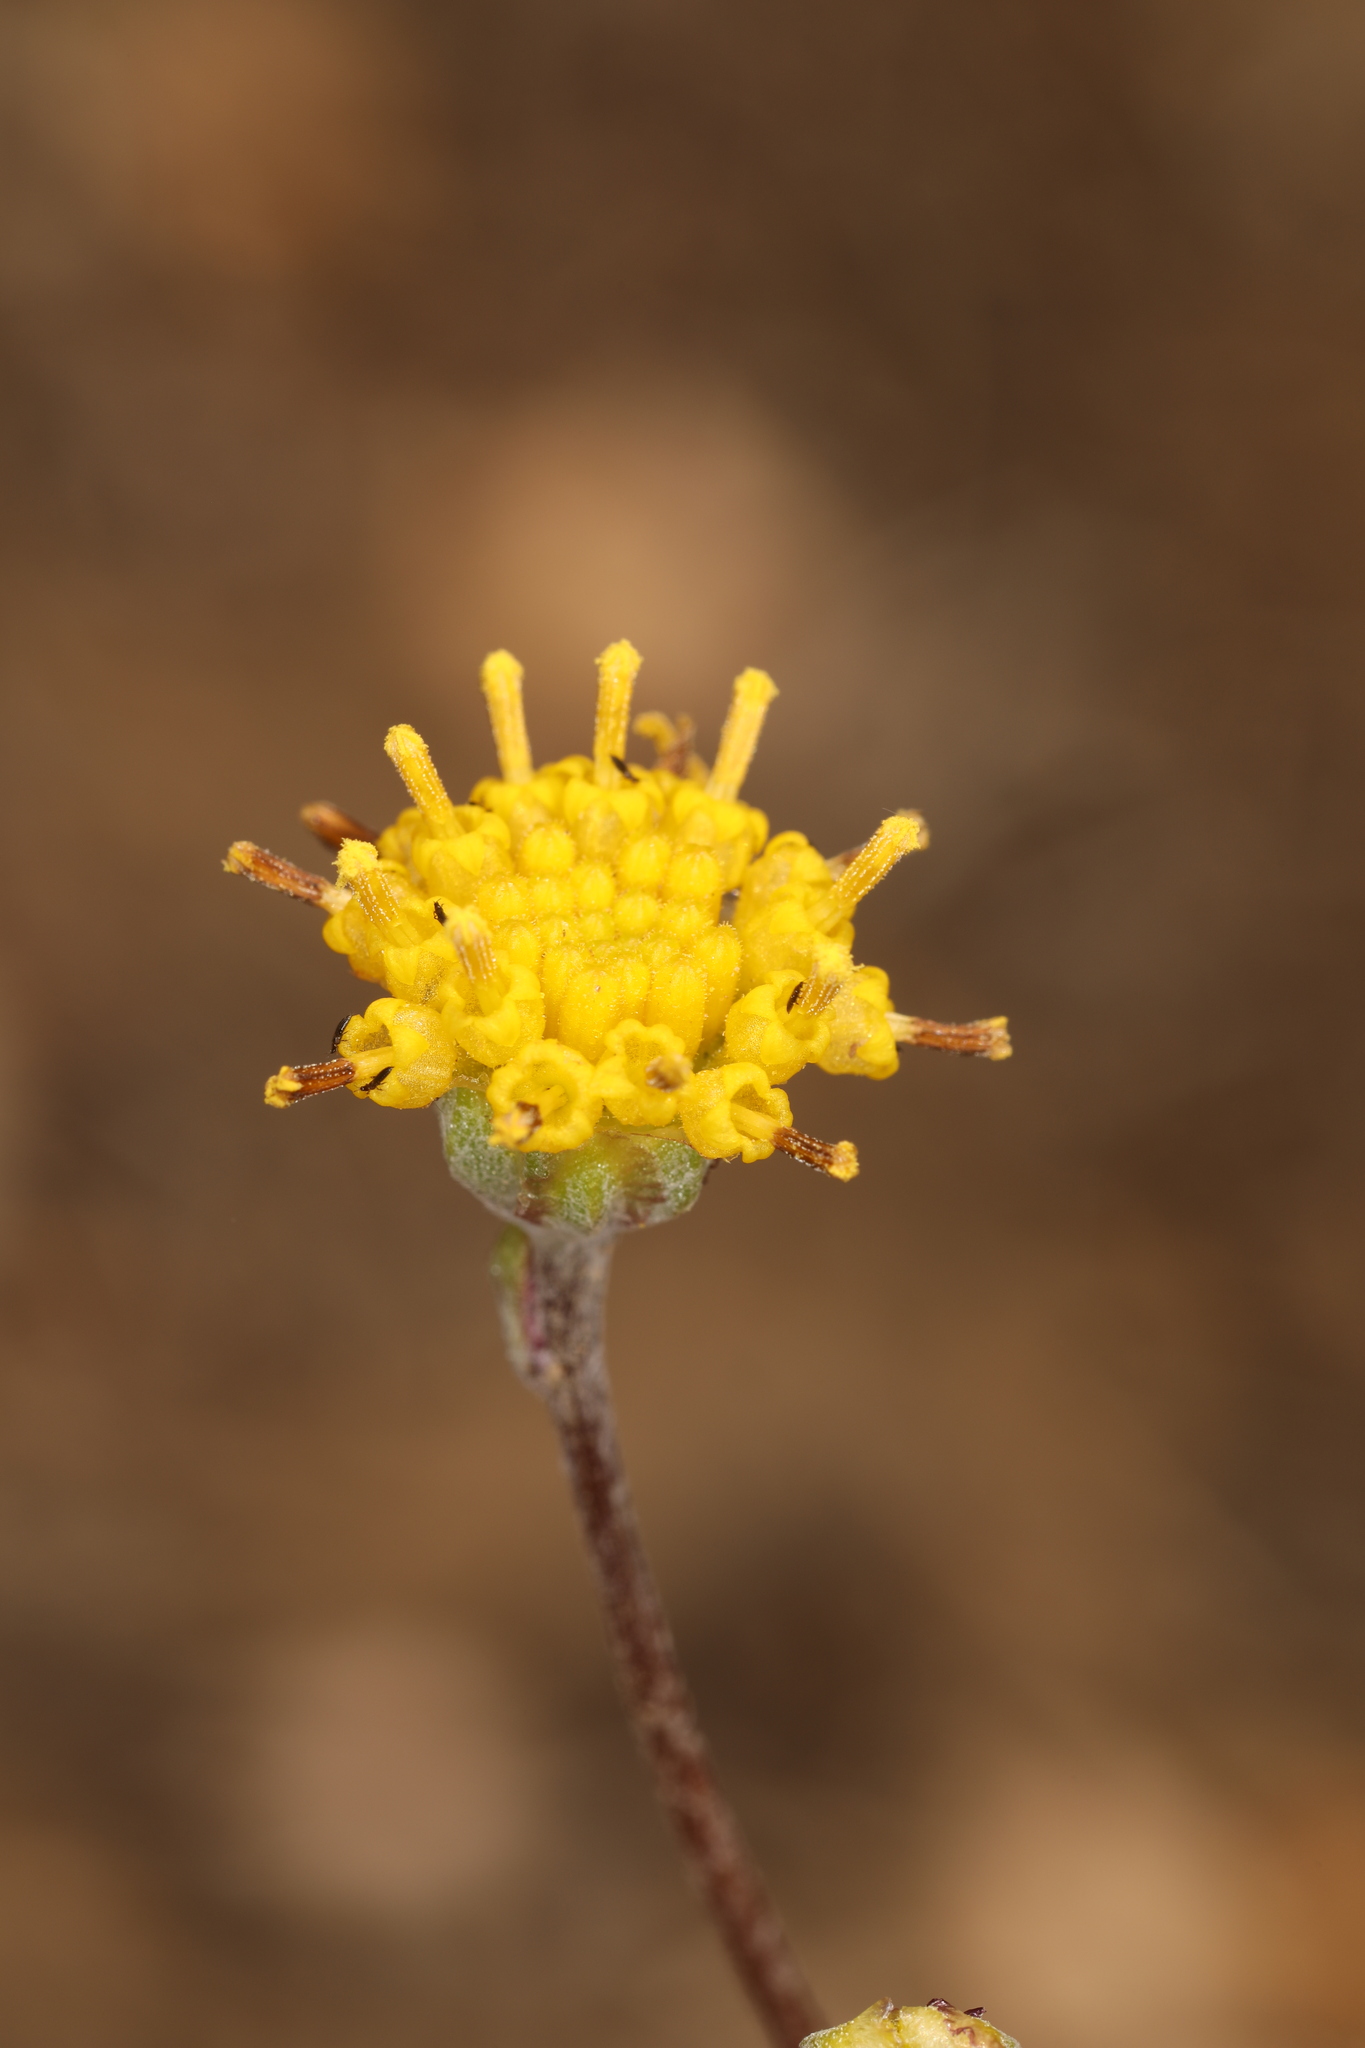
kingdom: Plantae
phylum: Tracheophyta
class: Magnoliopsida
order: Asterales
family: Asteraceae
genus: Hymenopappus
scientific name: Hymenopappus filifolius
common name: Columbia cutleaf
